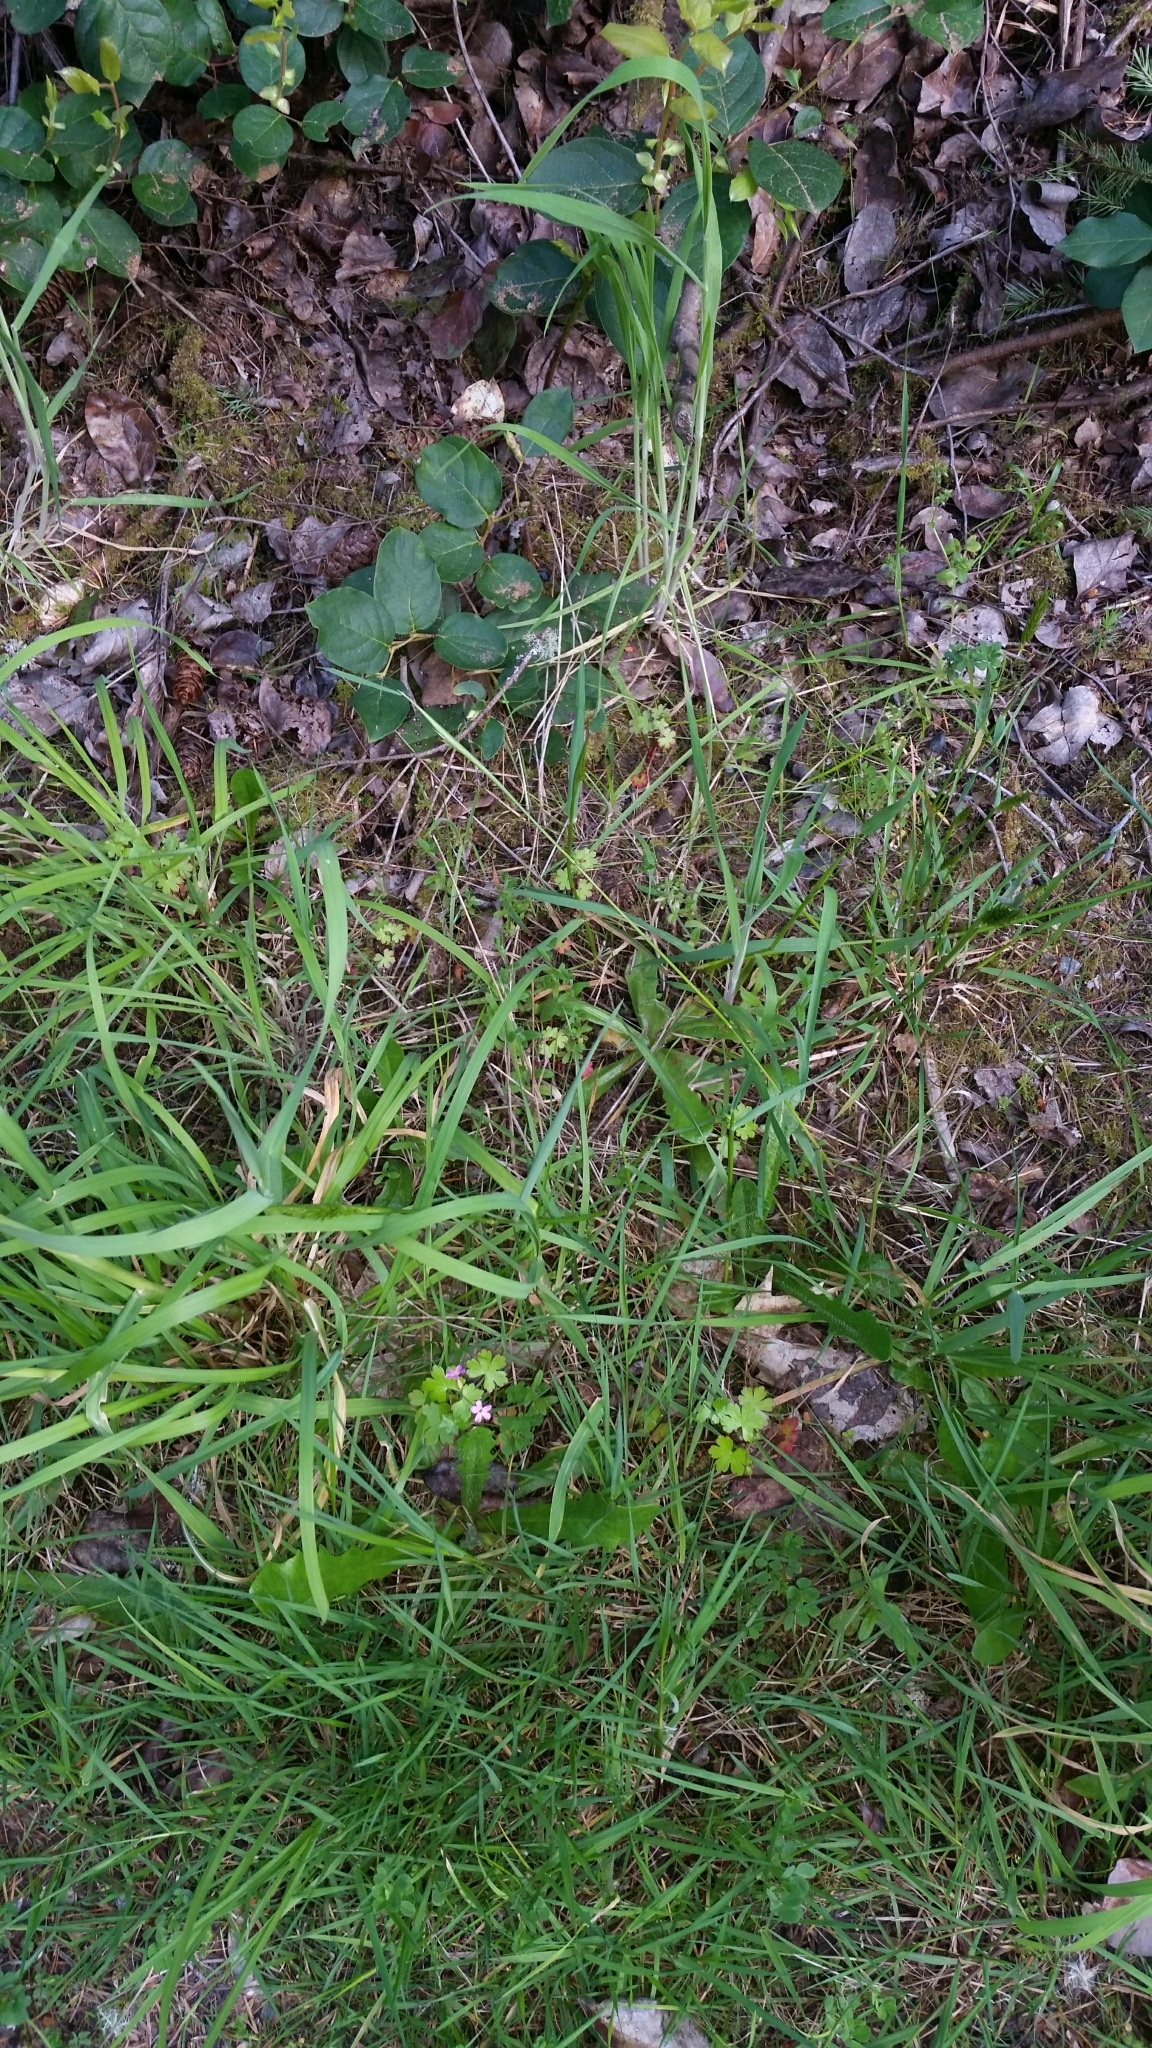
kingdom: Plantae
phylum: Tracheophyta
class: Magnoliopsida
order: Geraniales
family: Geraniaceae
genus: Geranium
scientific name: Geranium lucidum
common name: Shining crane's-bill
